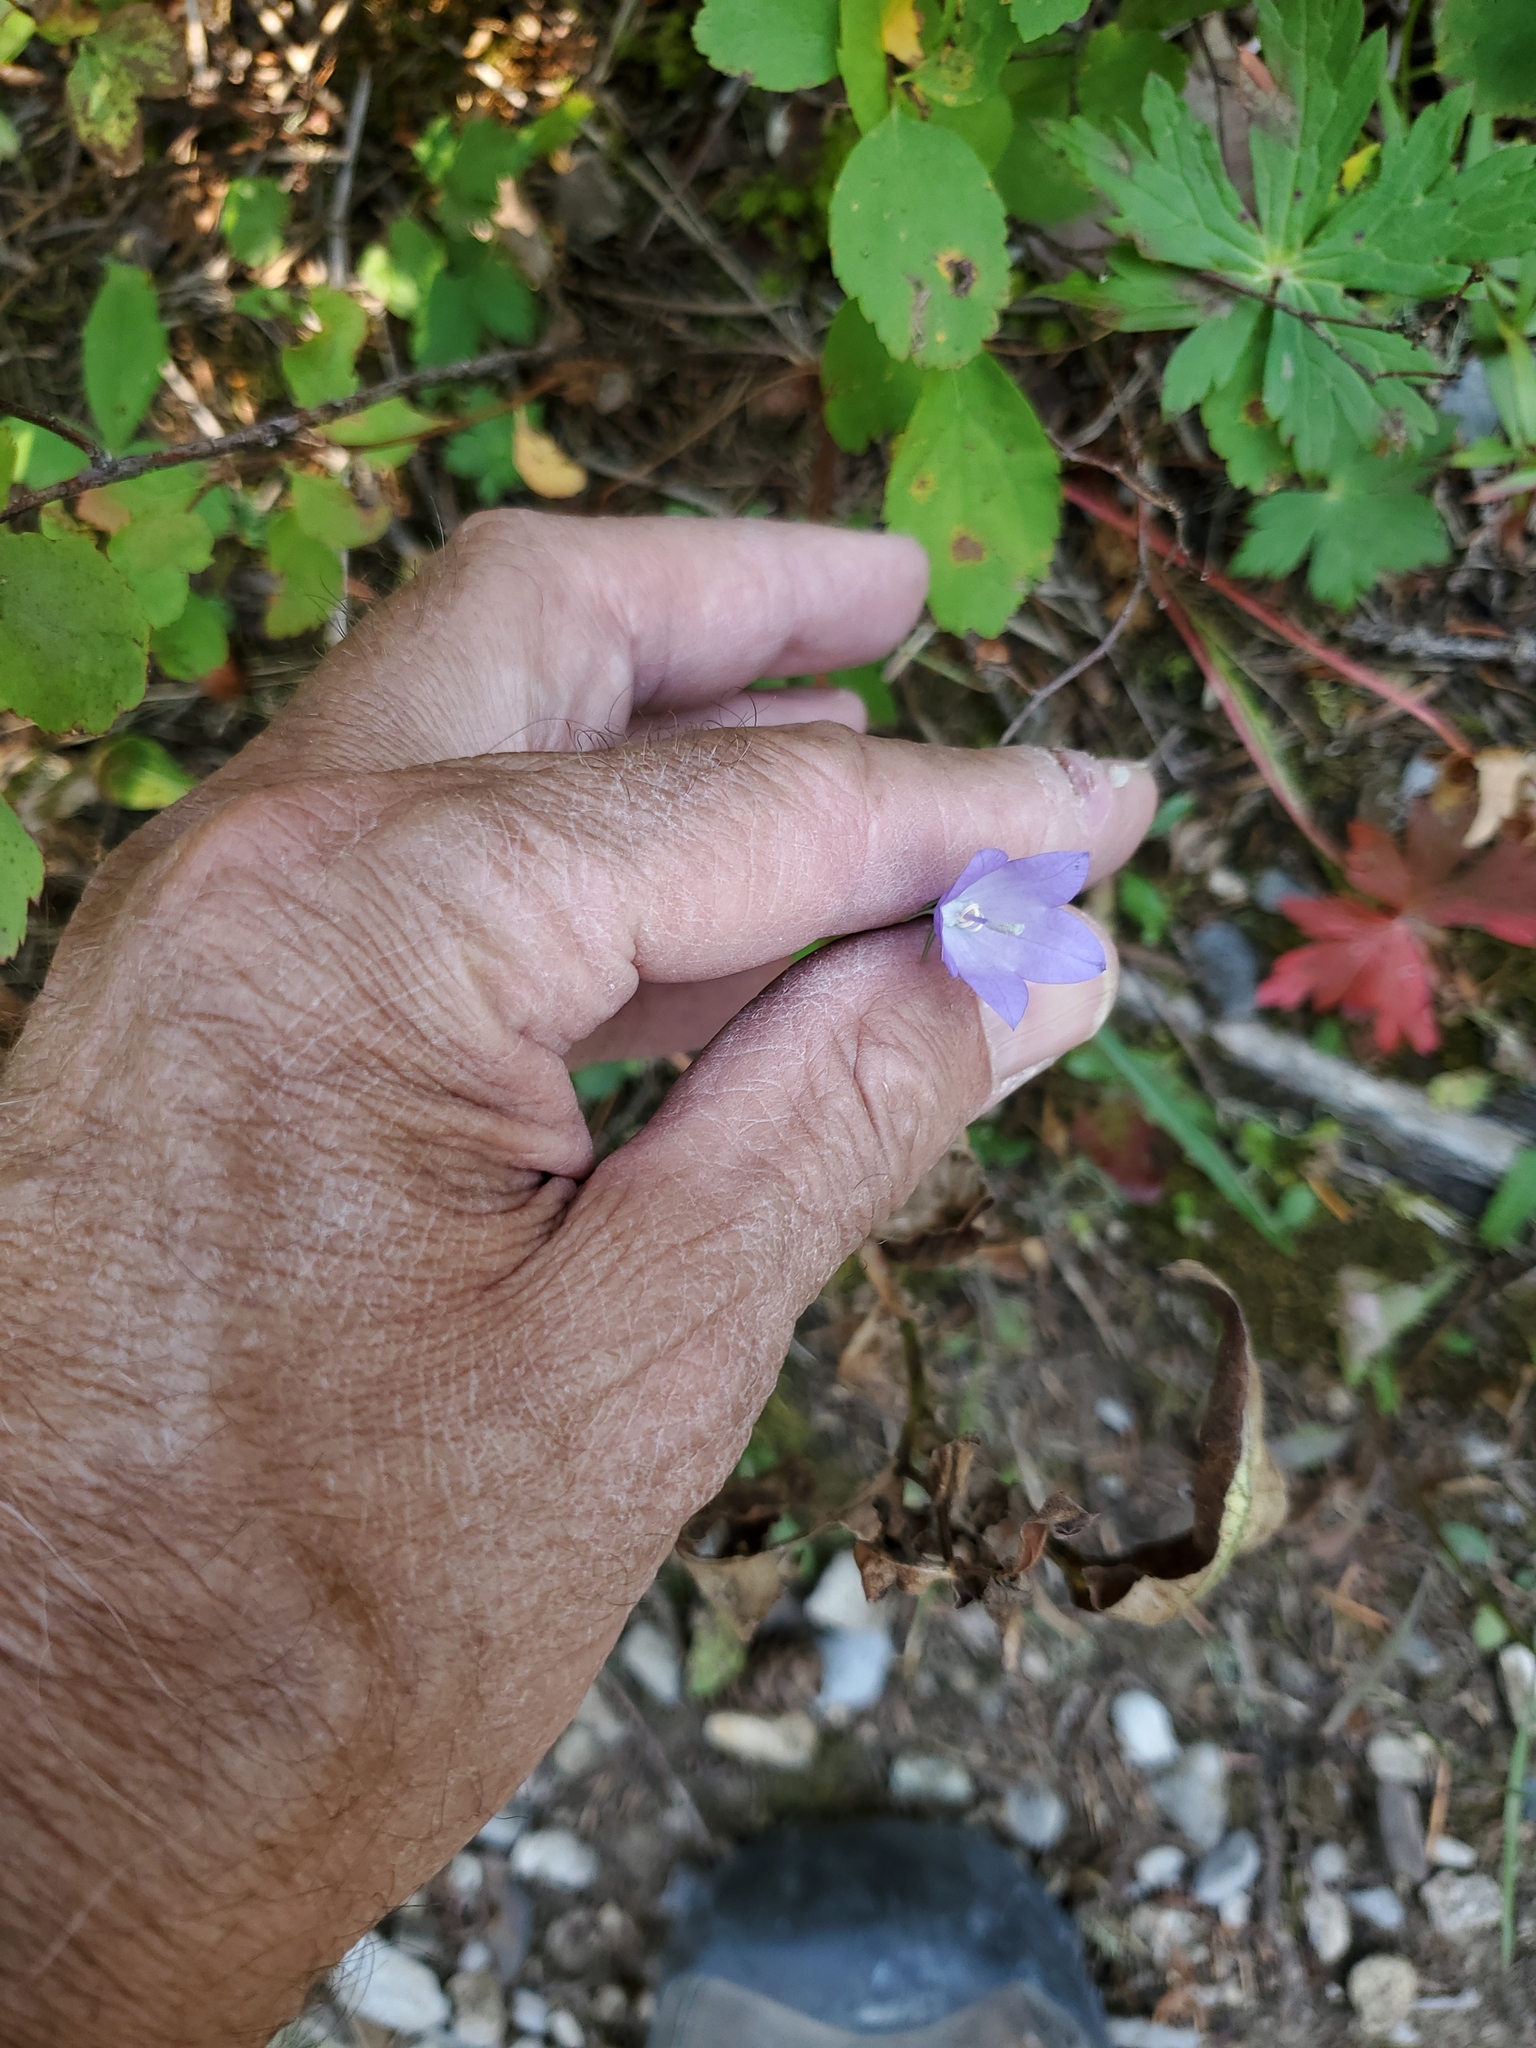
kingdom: Plantae
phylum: Tracheophyta
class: Magnoliopsida
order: Asterales
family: Campanulaceae
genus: Campanula
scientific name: Campanula petiolata
